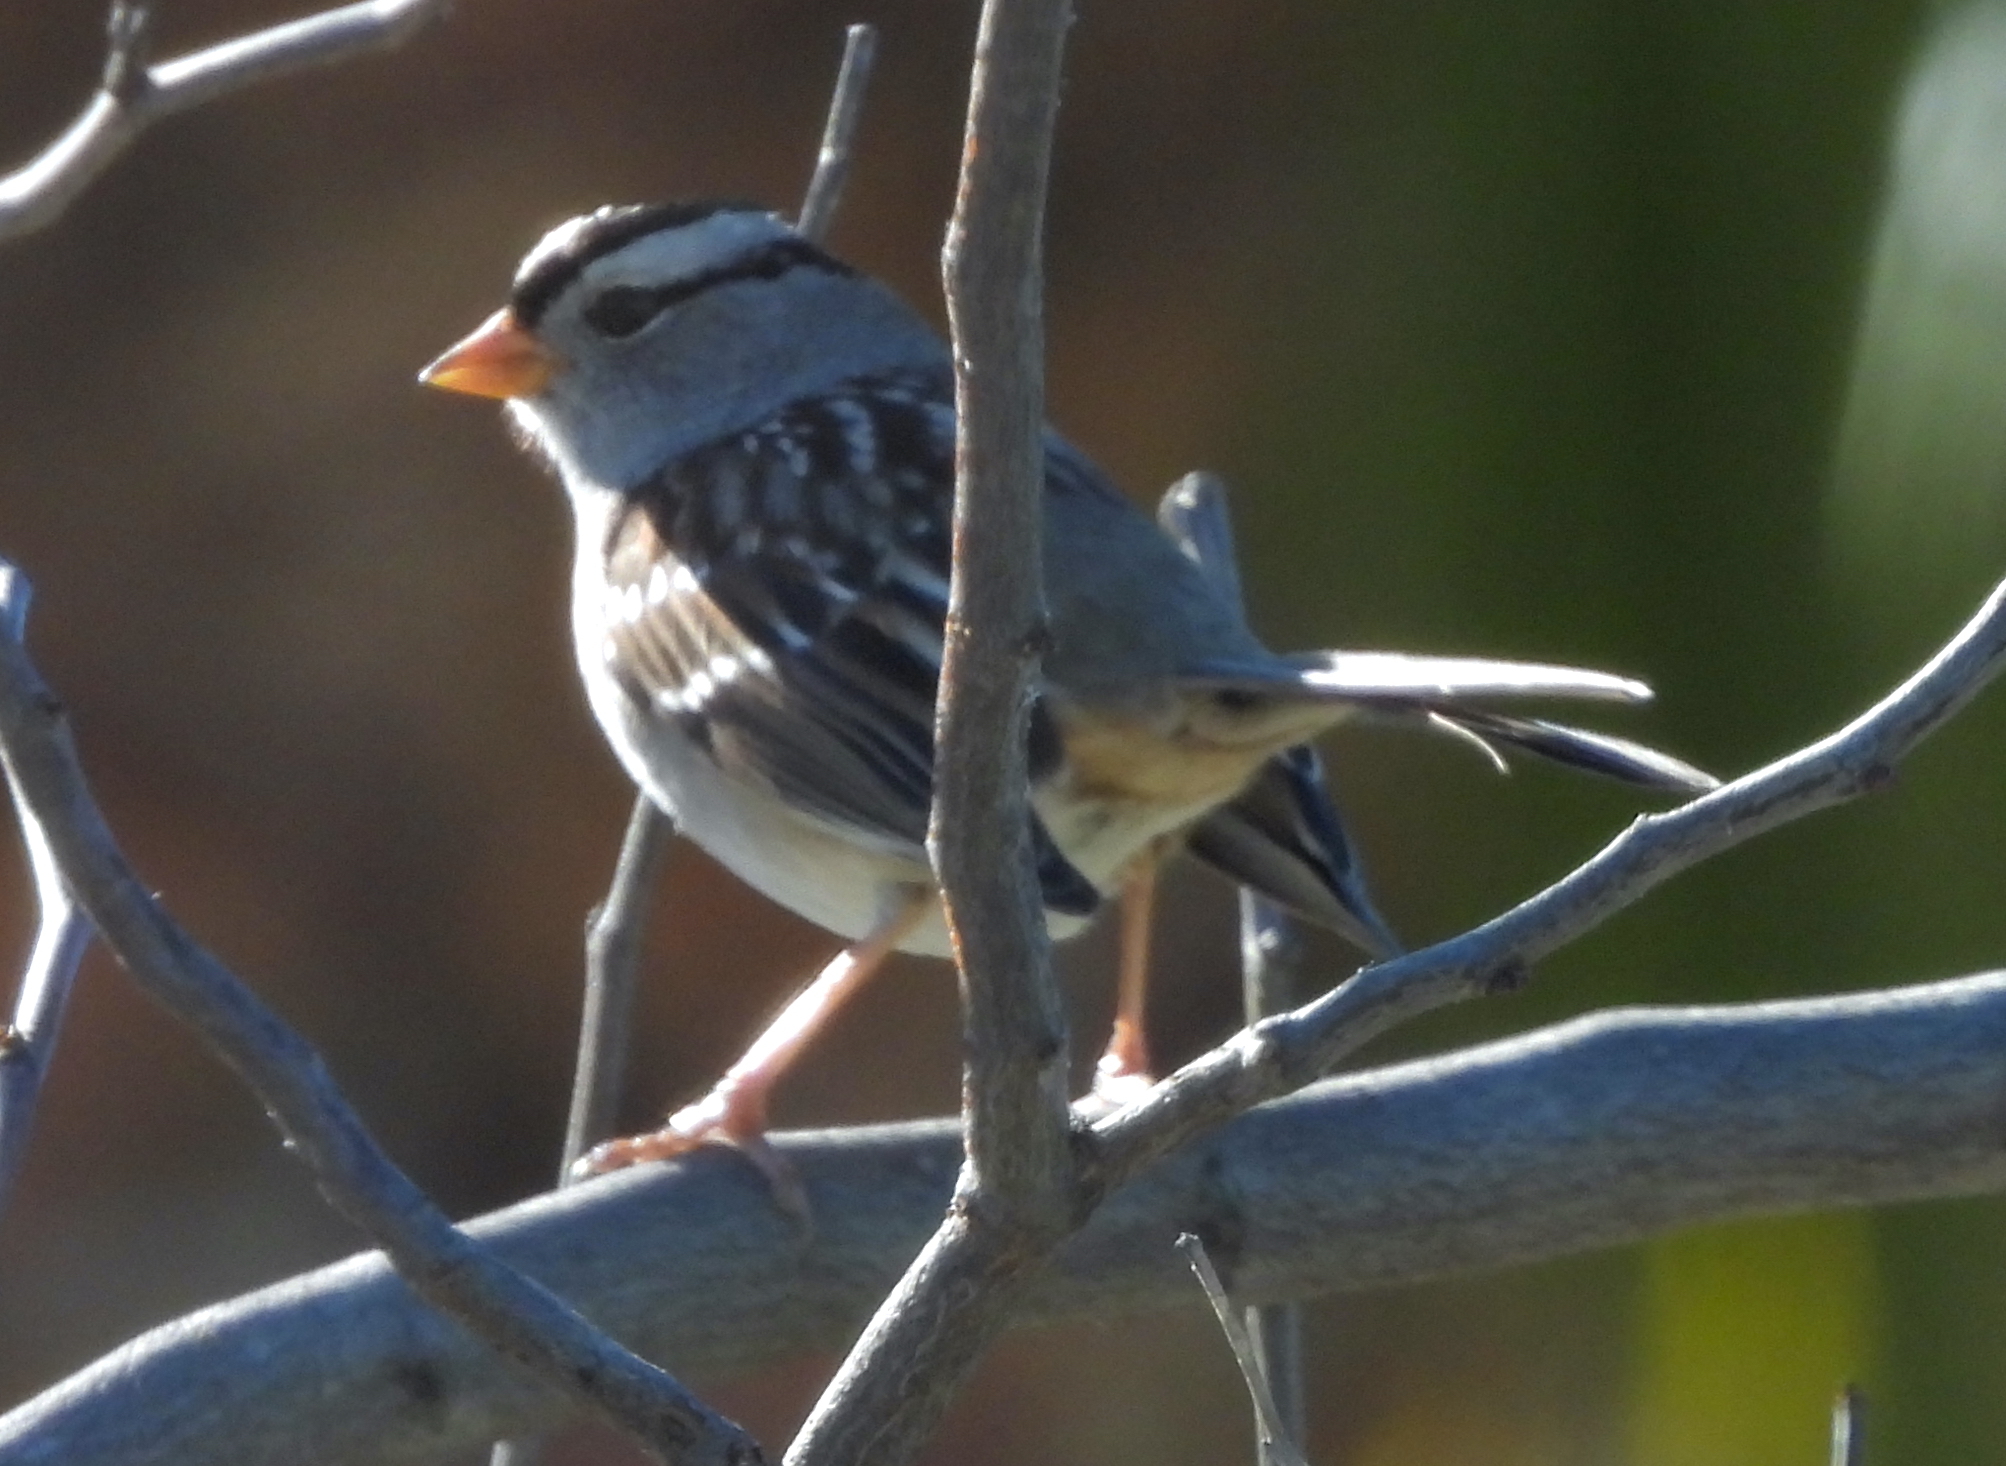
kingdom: Animalia
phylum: Chordata
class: Aves
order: Passeriformes
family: Passerellidae
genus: Zonotrichia
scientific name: Zonotrichia leucophrys
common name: White-crowned sparrow
